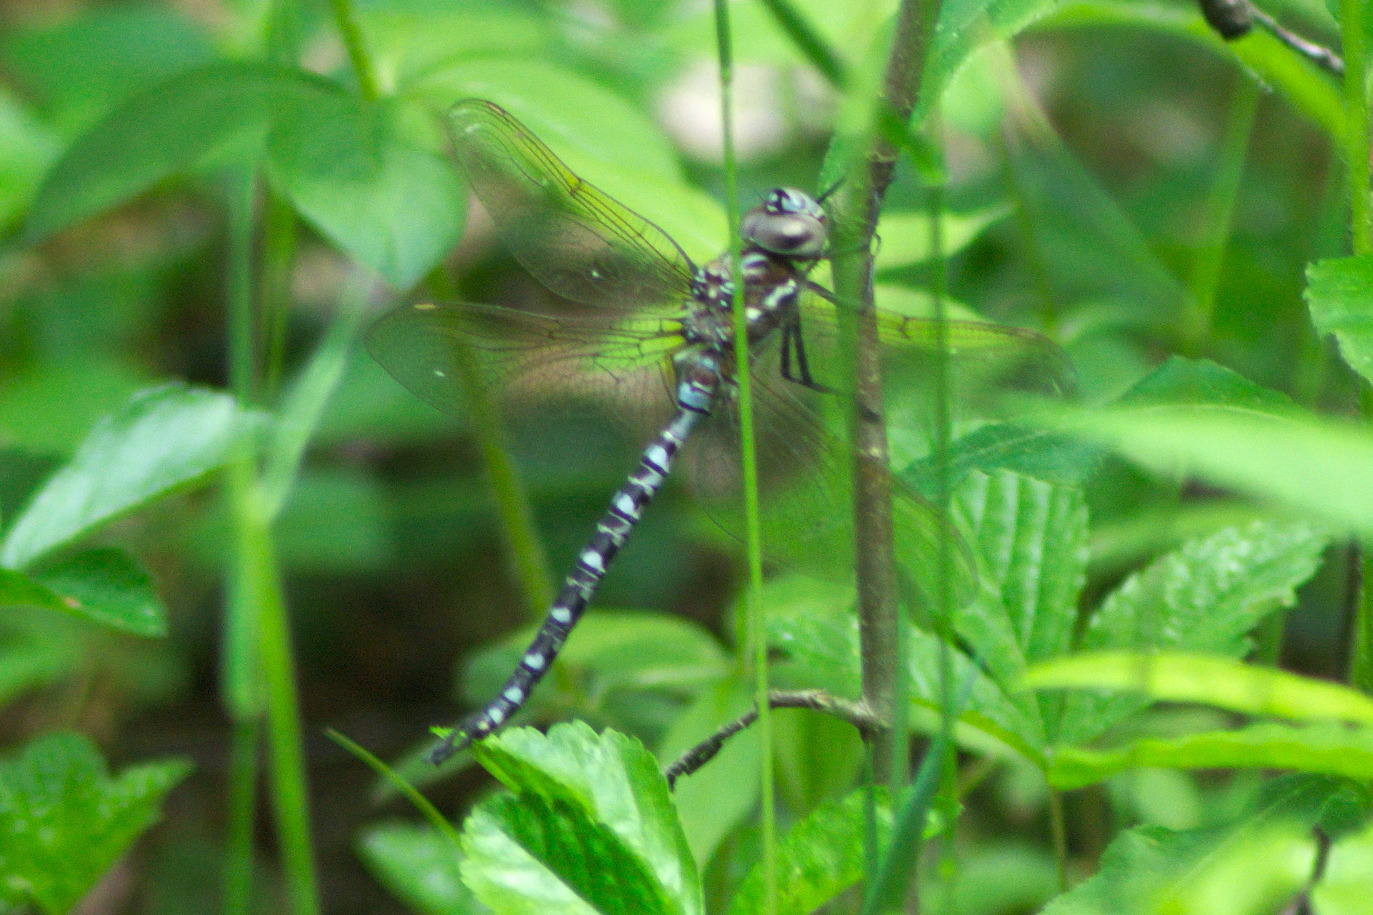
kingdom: Animalia
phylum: Arthropoda
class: Insecta
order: Odonata
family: Aeshnidae
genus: Rhionaeschna
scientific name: Rhionaeschna mutata
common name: Spatterdock darner
